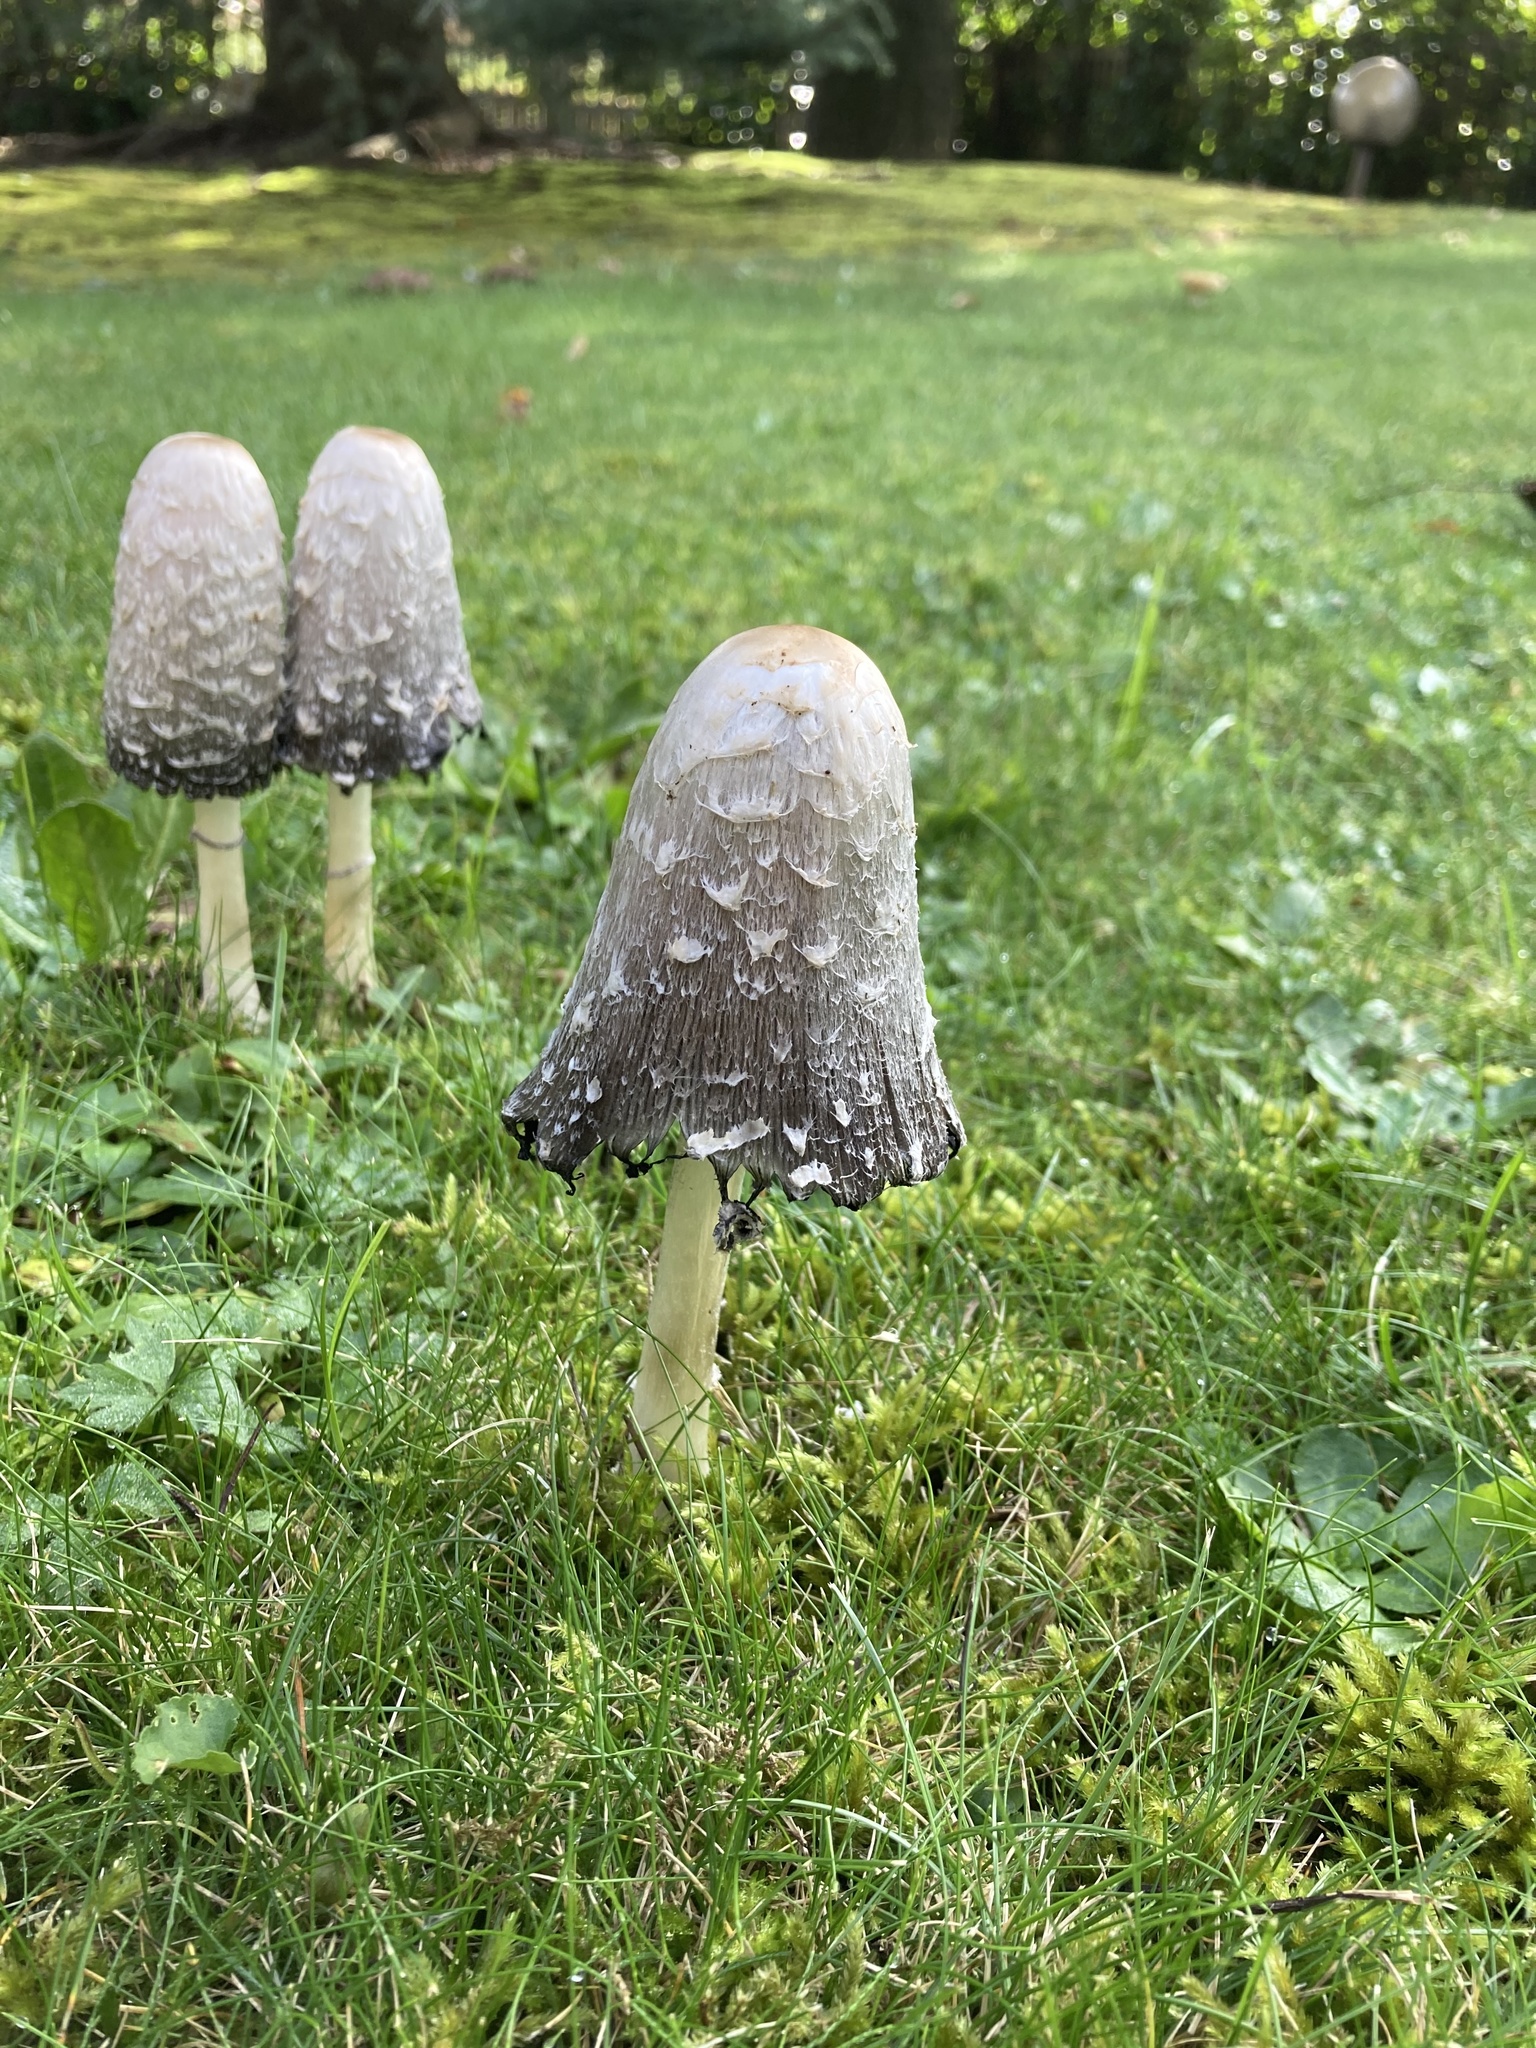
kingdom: Fungi
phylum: Basidiomycota
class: Agaricomycetes
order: Agaricales
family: Agaricaceae
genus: Coprinus
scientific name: Coprinus comatus
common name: Lawyer's wig
